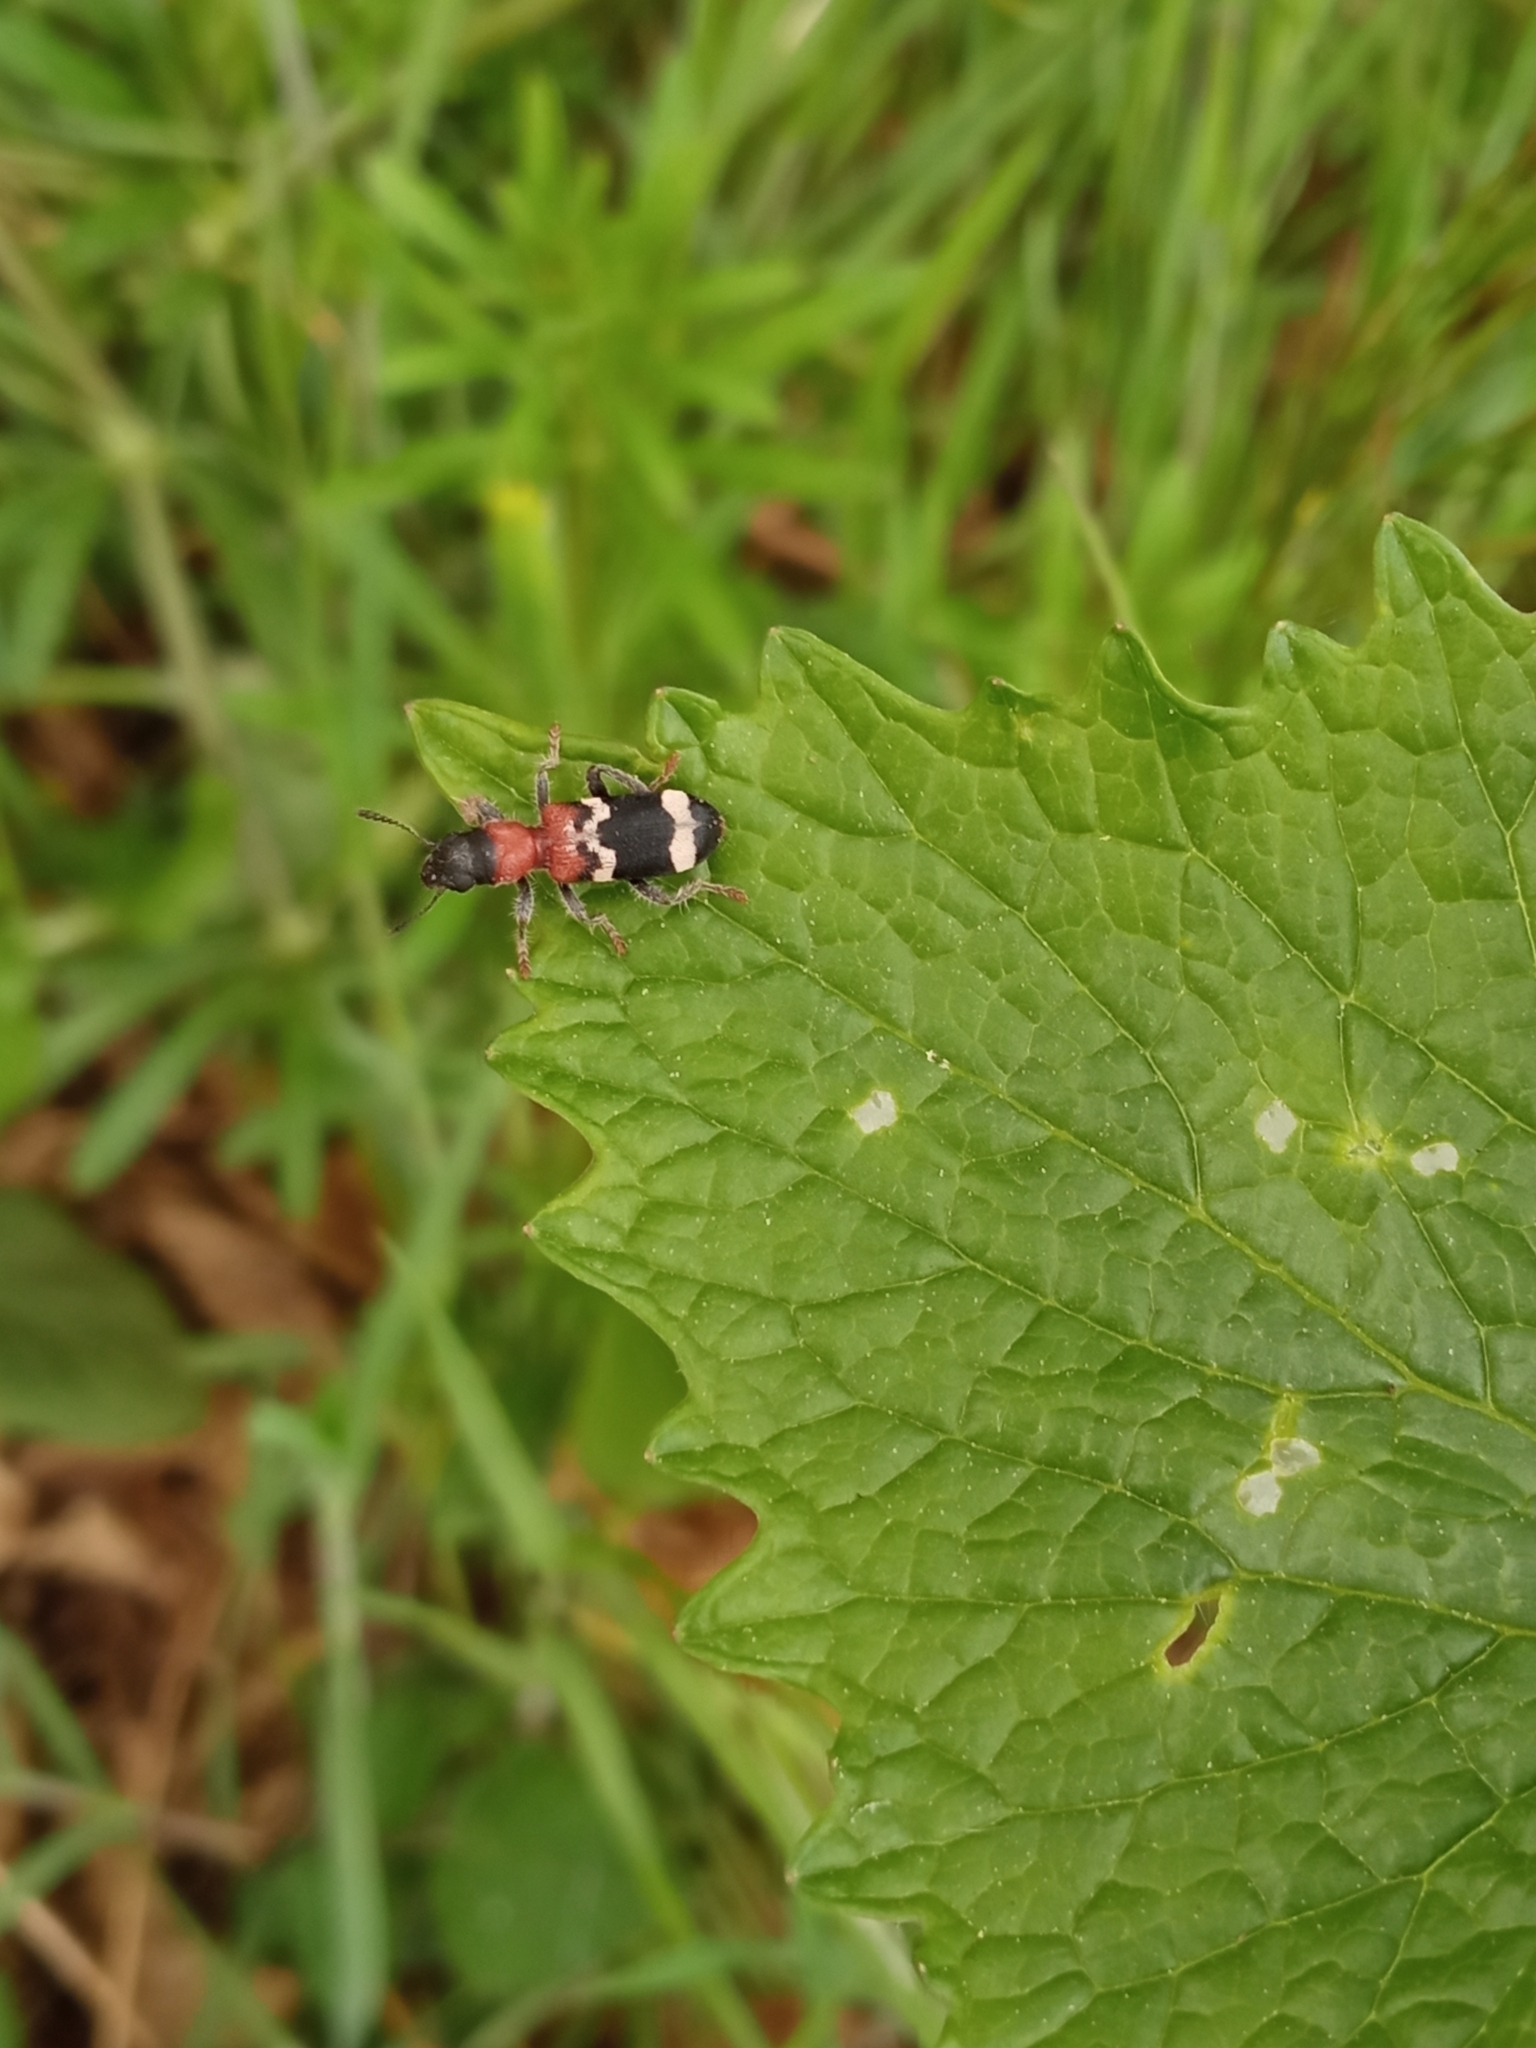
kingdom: Animalia
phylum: Arthropoda
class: Insecta
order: Coleoptera
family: Cleridae
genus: Thanasimus
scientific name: Thanasimus formicarius
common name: Ant beetle
